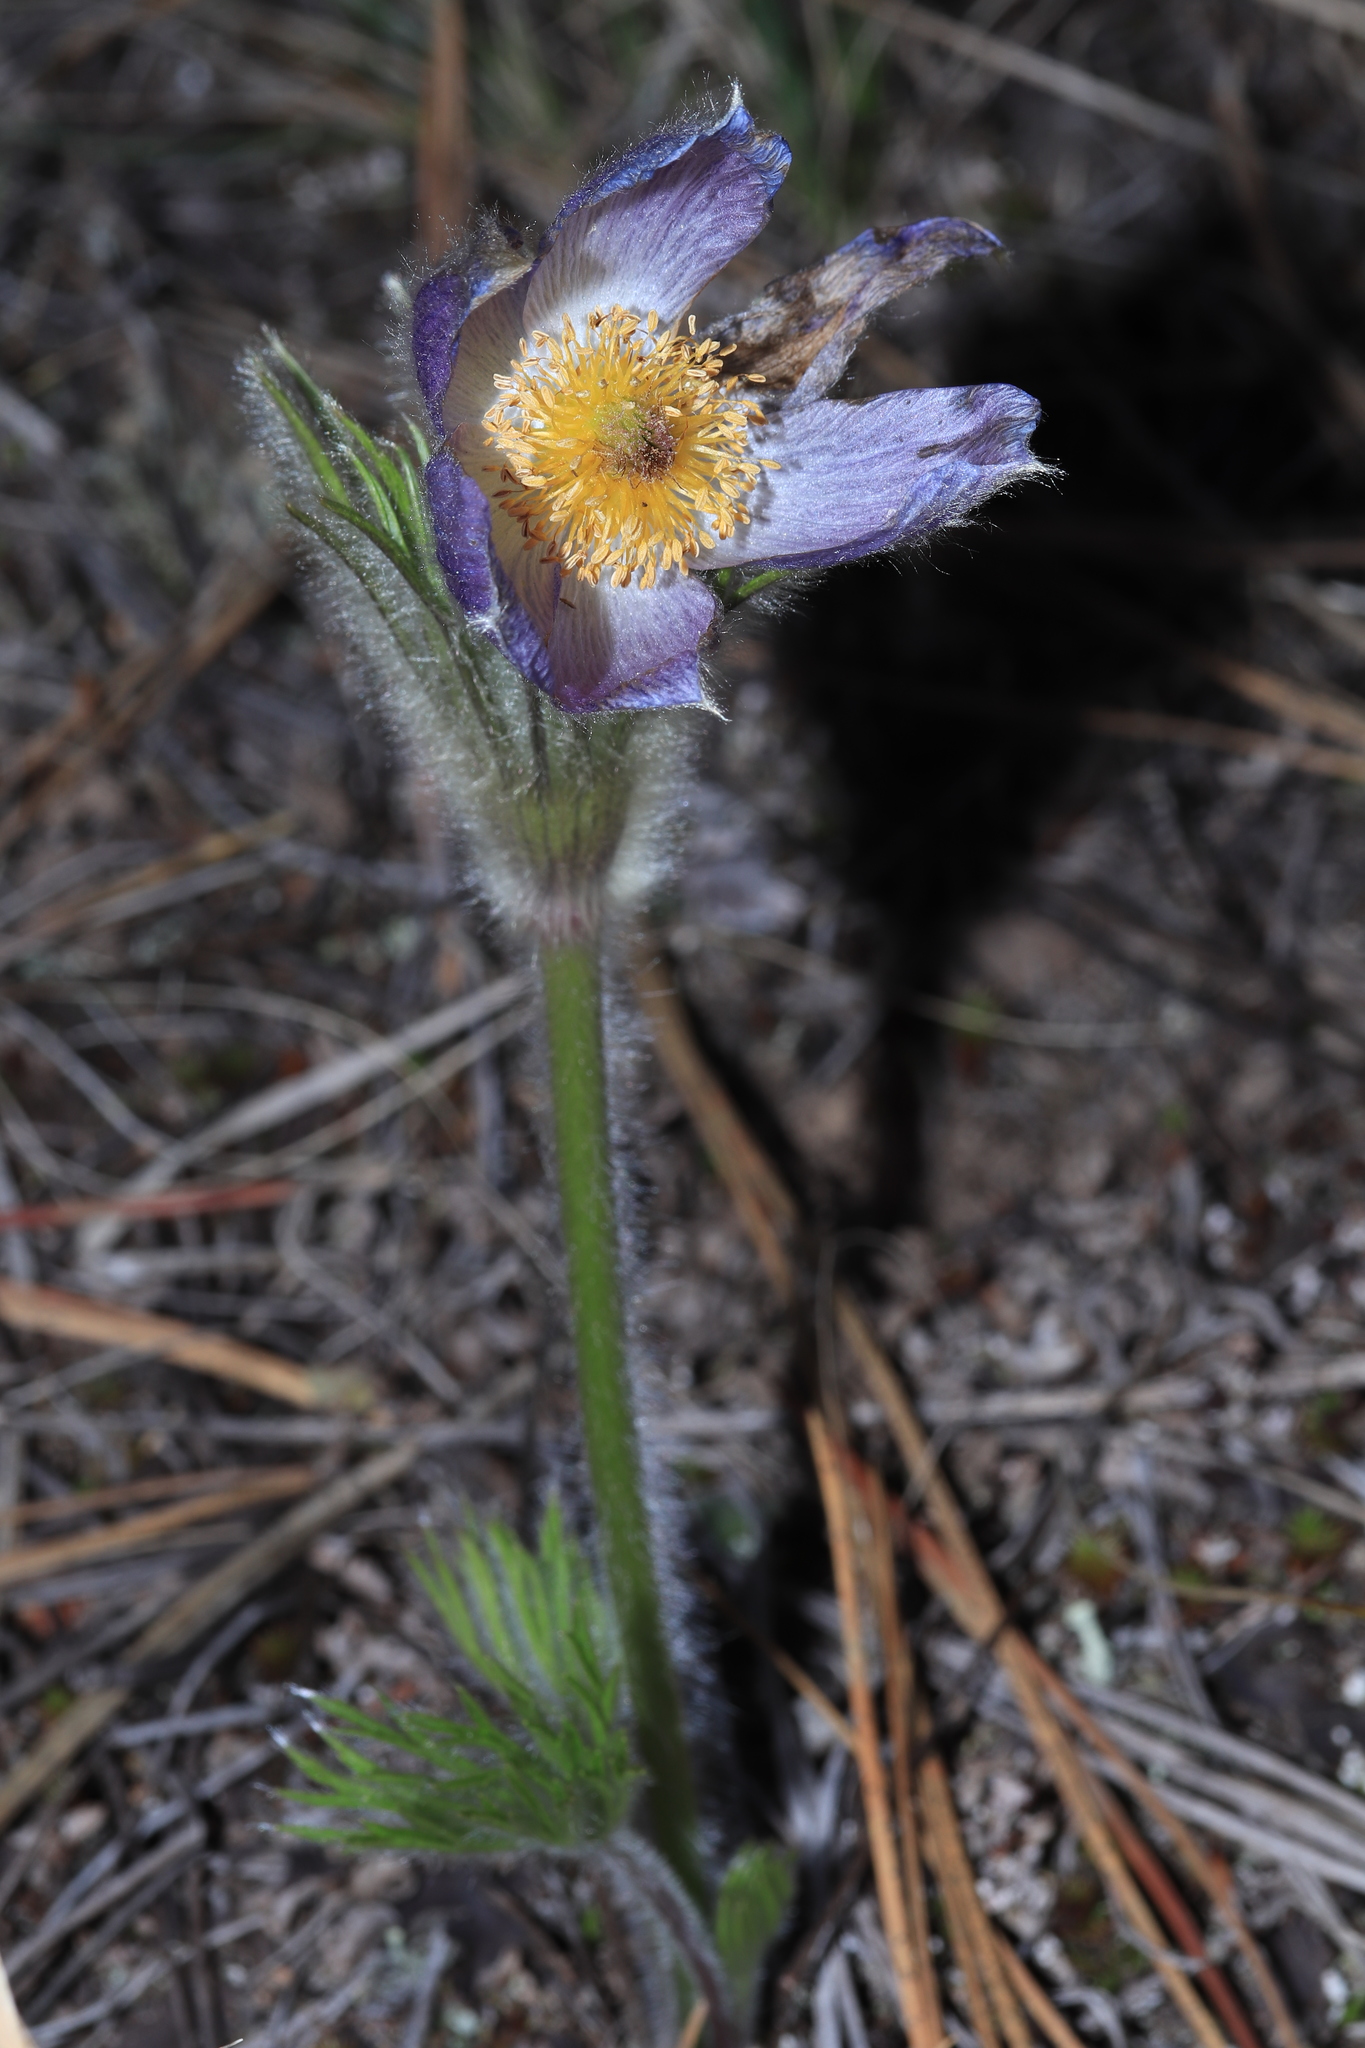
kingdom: Plantae
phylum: Tracheophyta
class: Magnoliopsida
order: Ranunculales
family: Ranunculaceae
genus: Pulsatilla
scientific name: Pulsatilla nuttalliana
